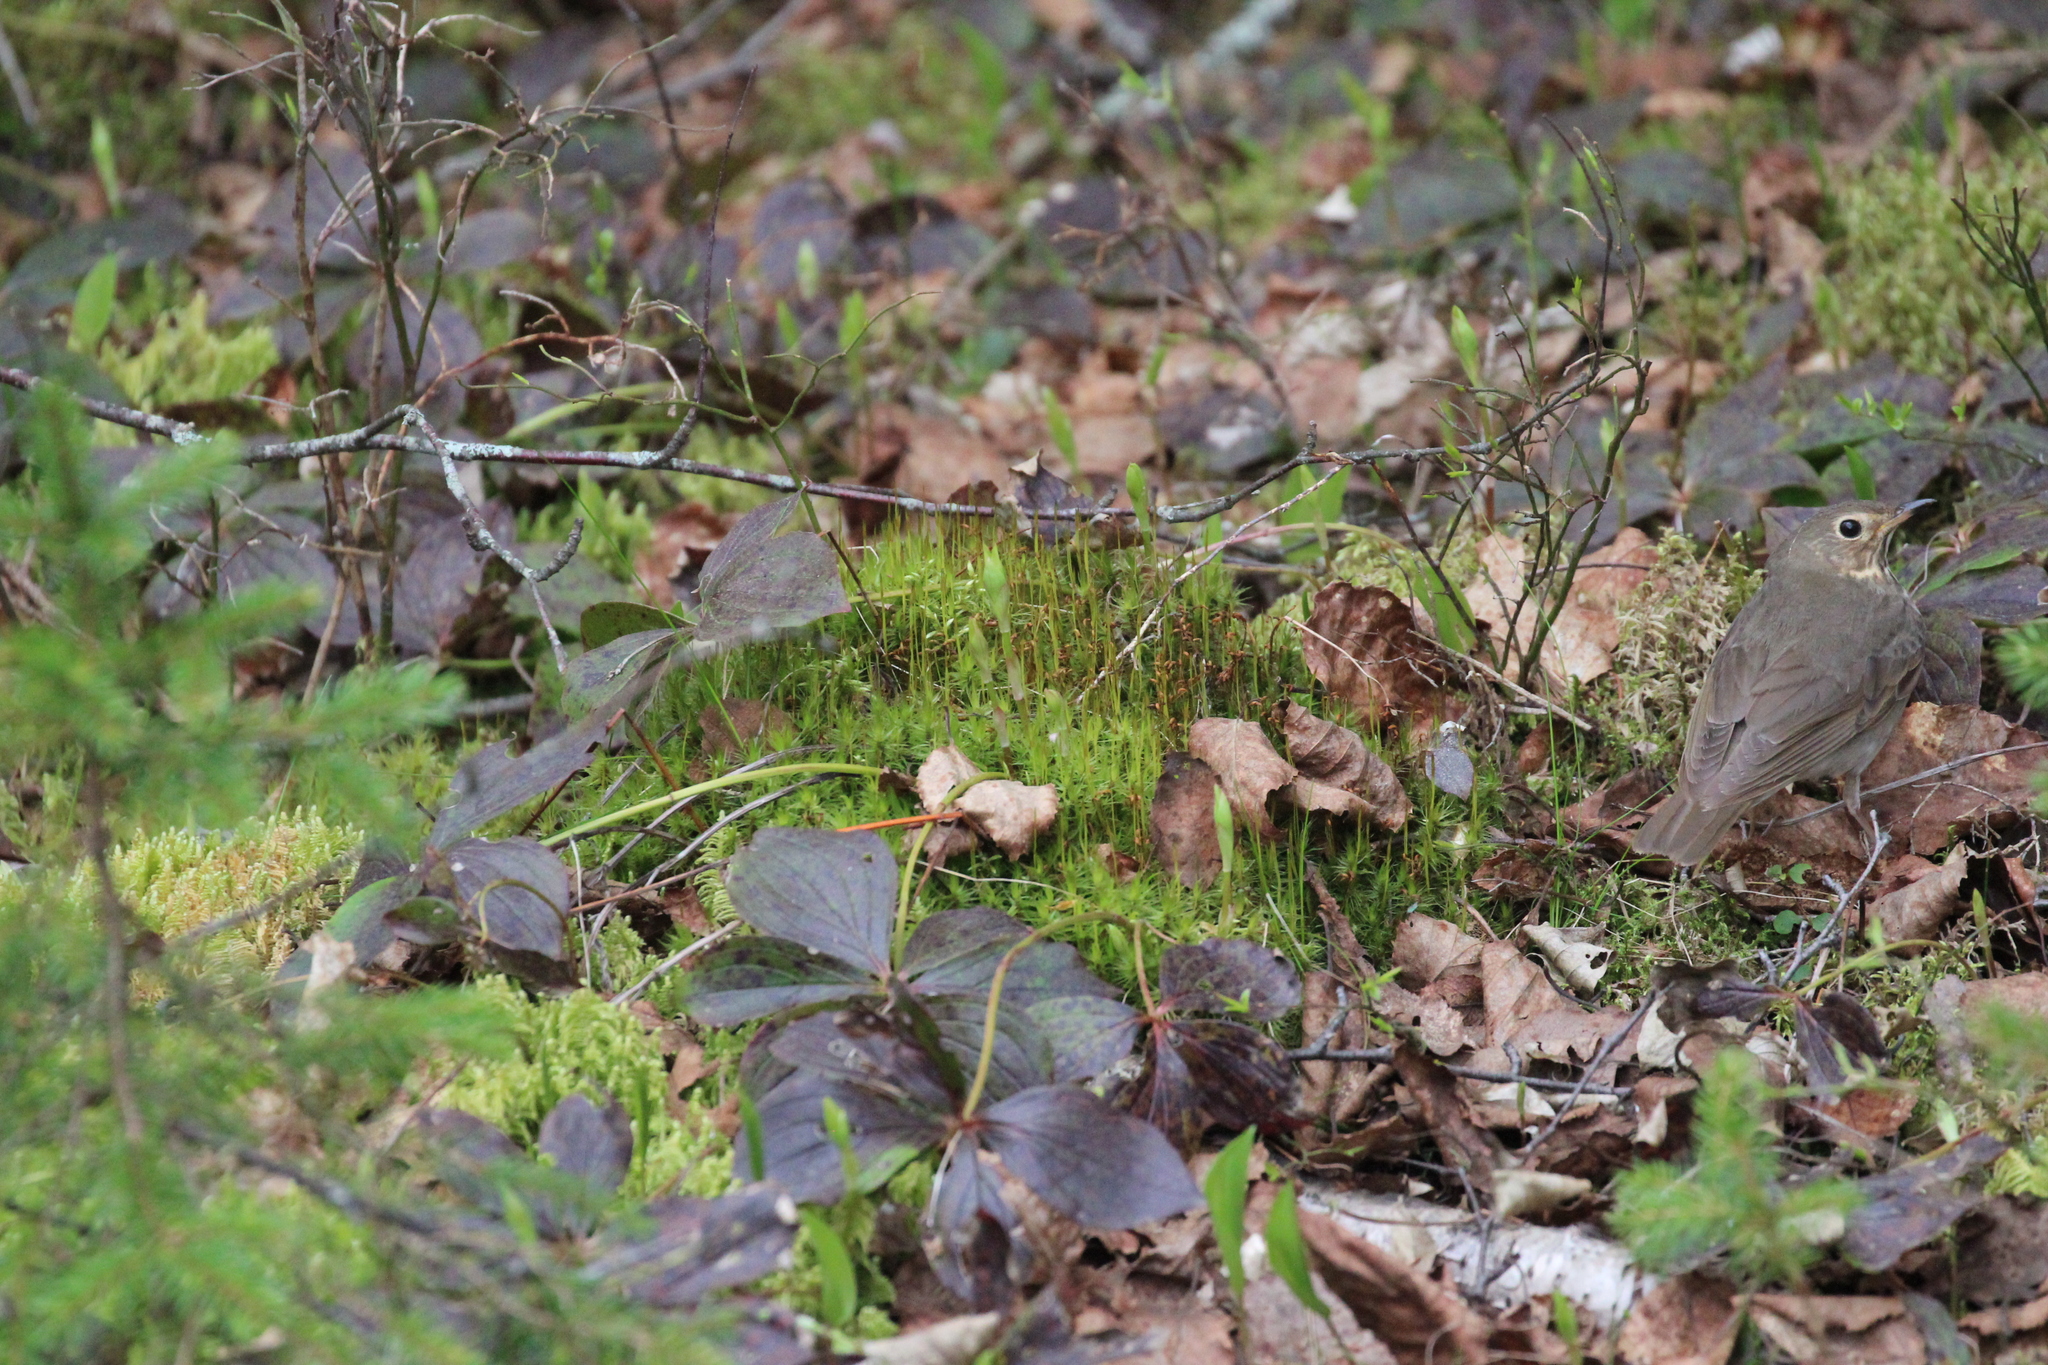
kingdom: Animalia
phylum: Chordata
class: Aves
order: Passeriformes
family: Turdidae
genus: Catharus
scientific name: Catharus ustulatus
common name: Swainson's thrush
